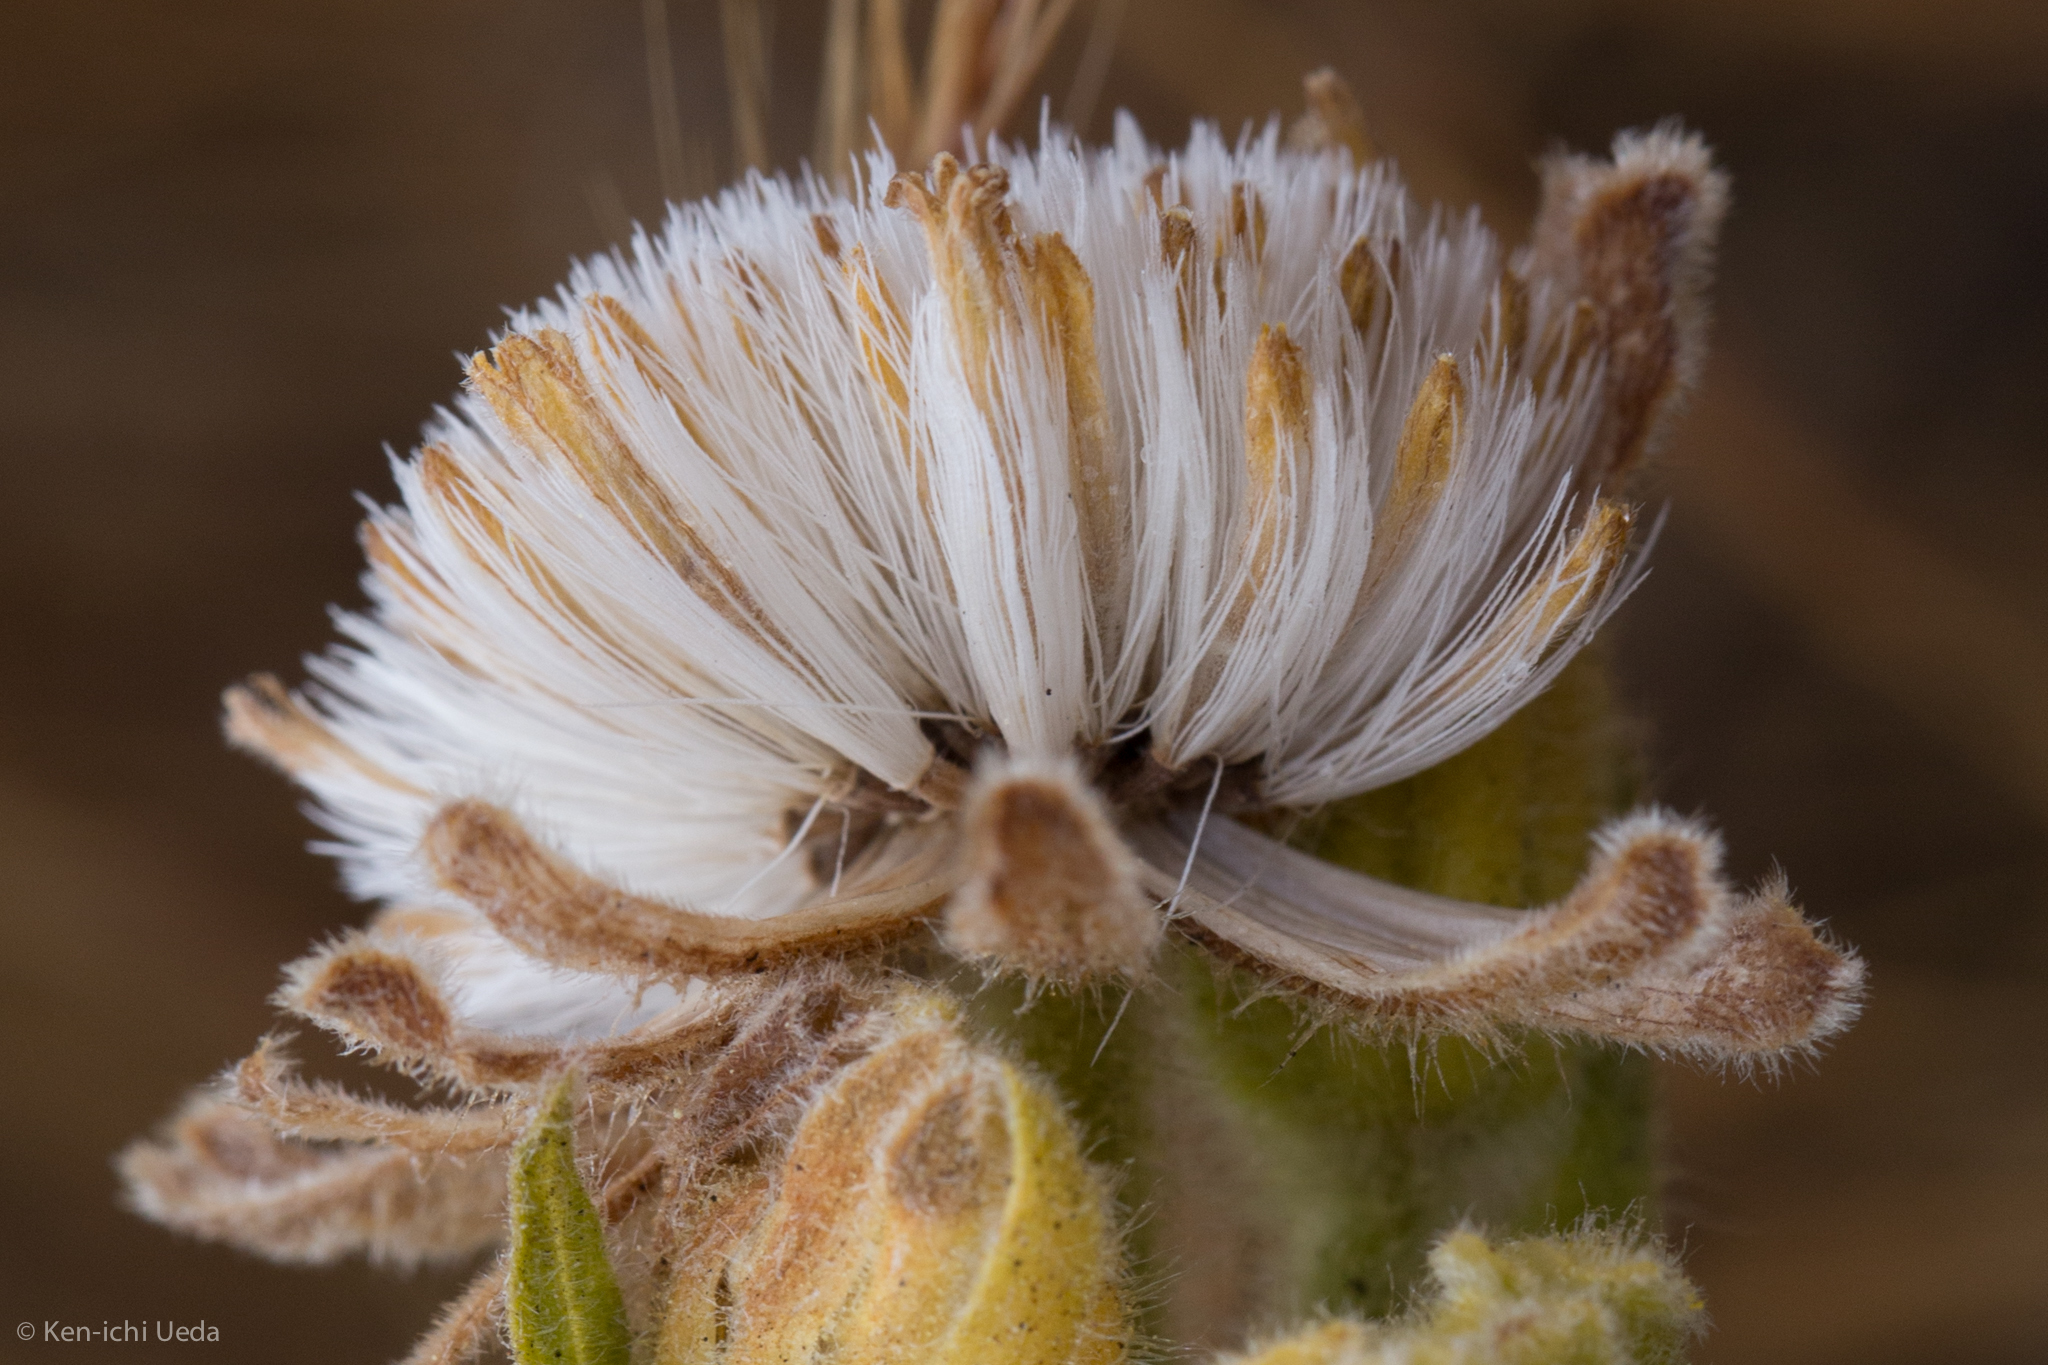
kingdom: Plantae
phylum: Tracheophyta
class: Magnoliopsida
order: Asterales
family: Asteraceae
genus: Arnica
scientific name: Arnica discoidea
